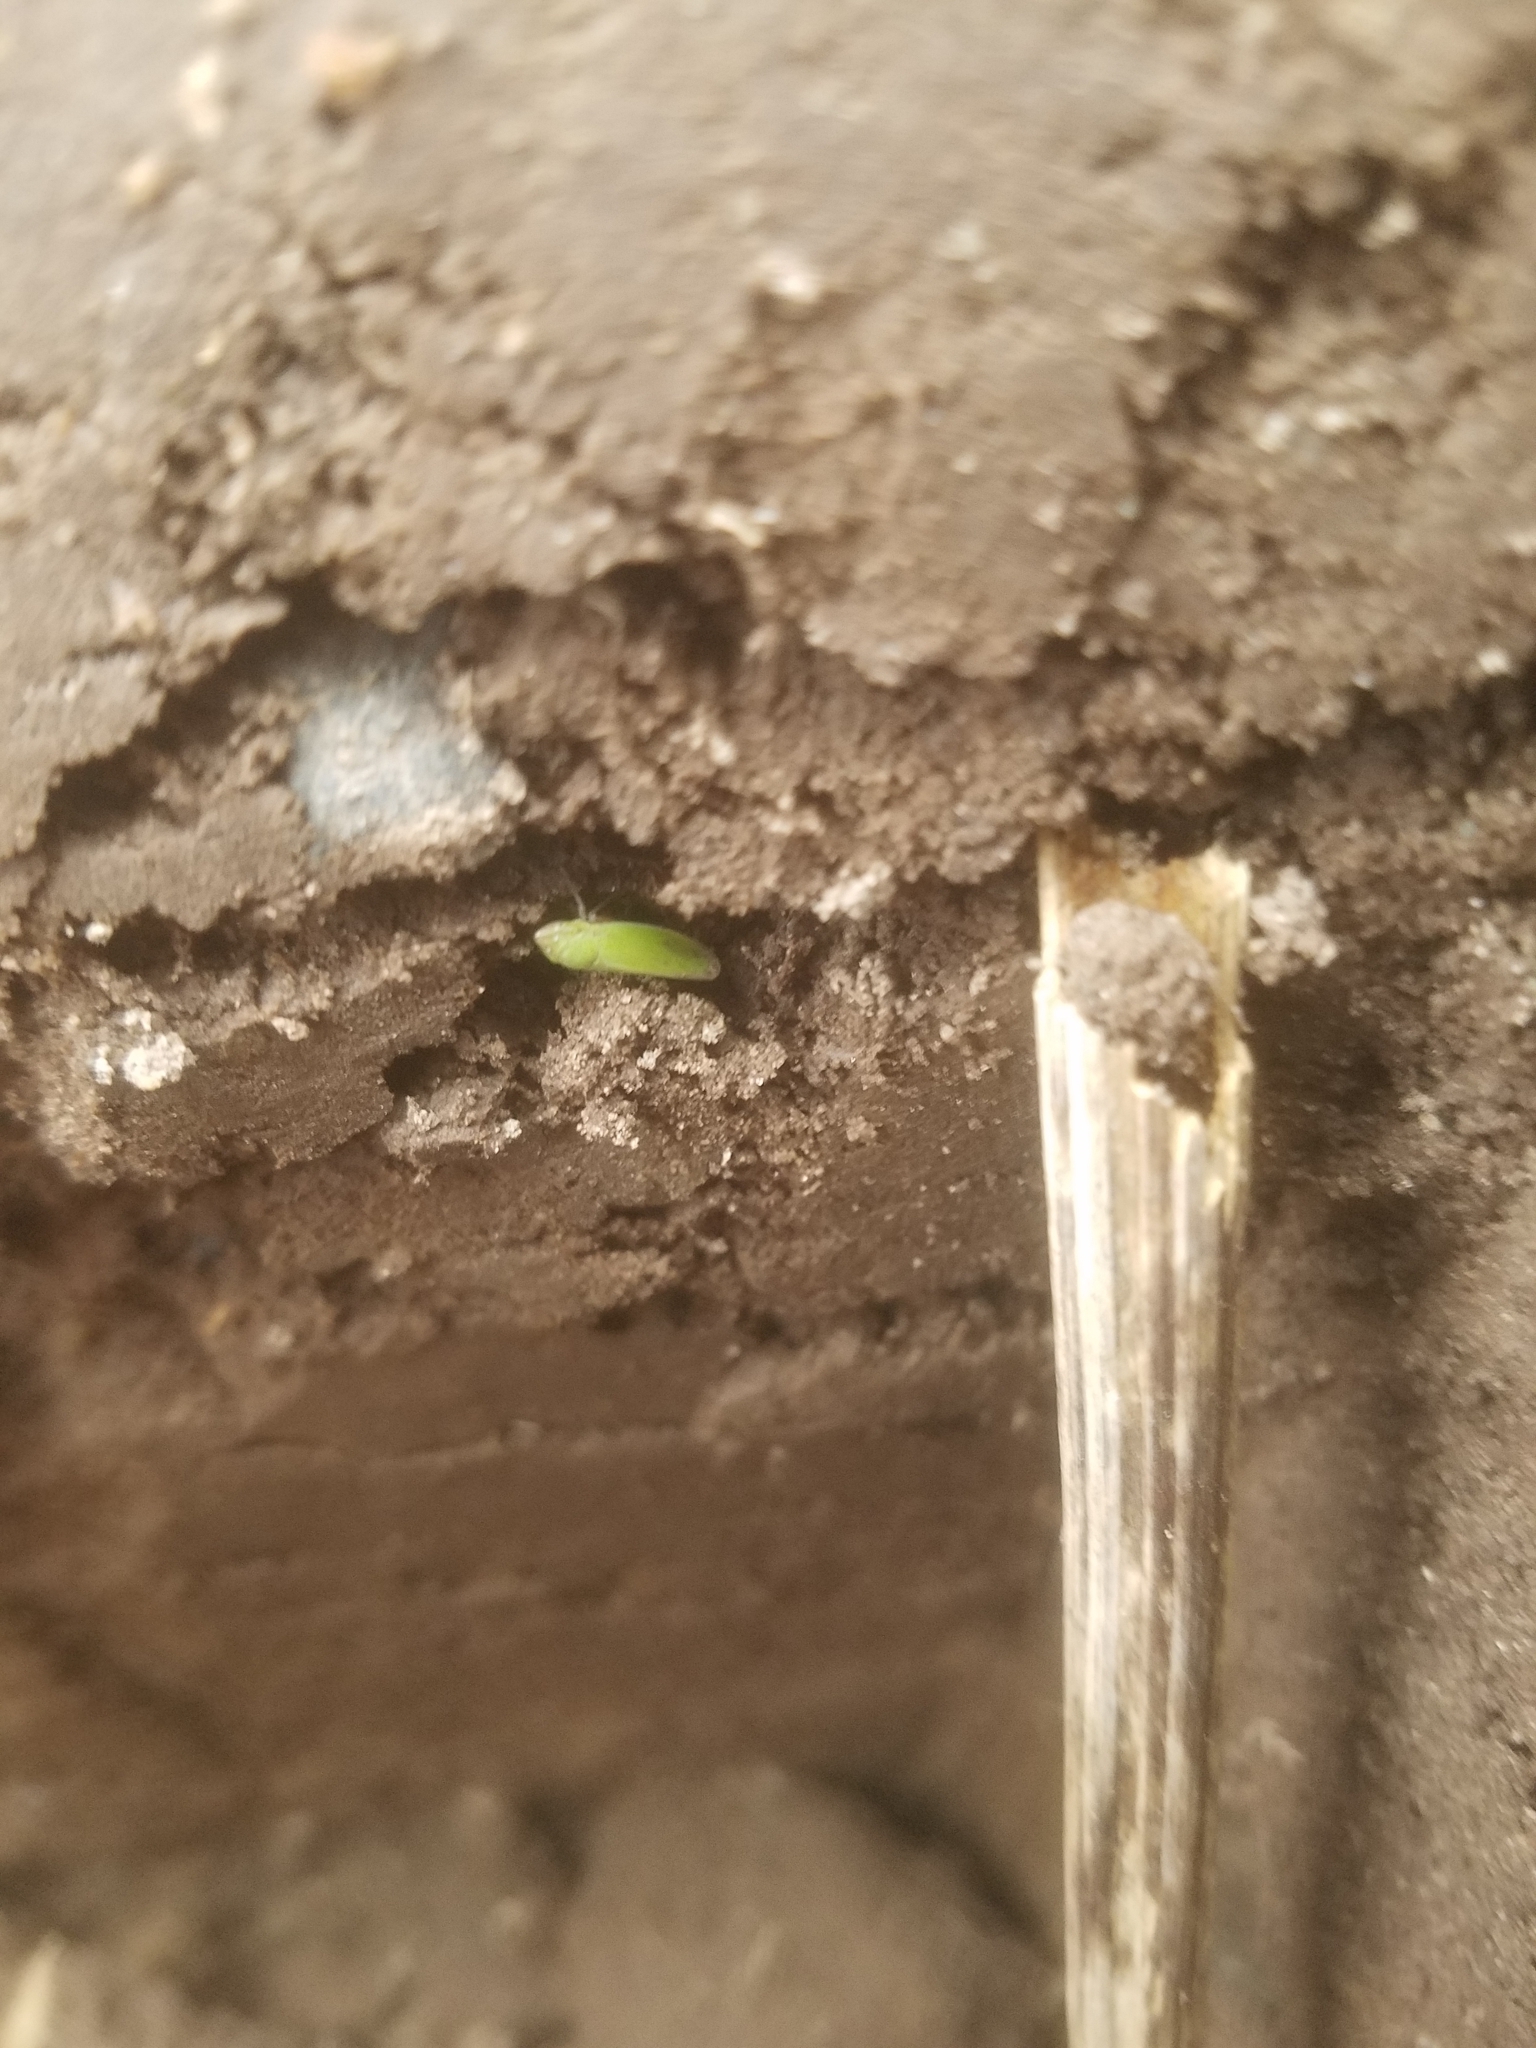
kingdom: Animalia
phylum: Arthropoda
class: Insecta
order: Hemiptera
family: Cicadellidae
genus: Helochara
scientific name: Helochara delta
